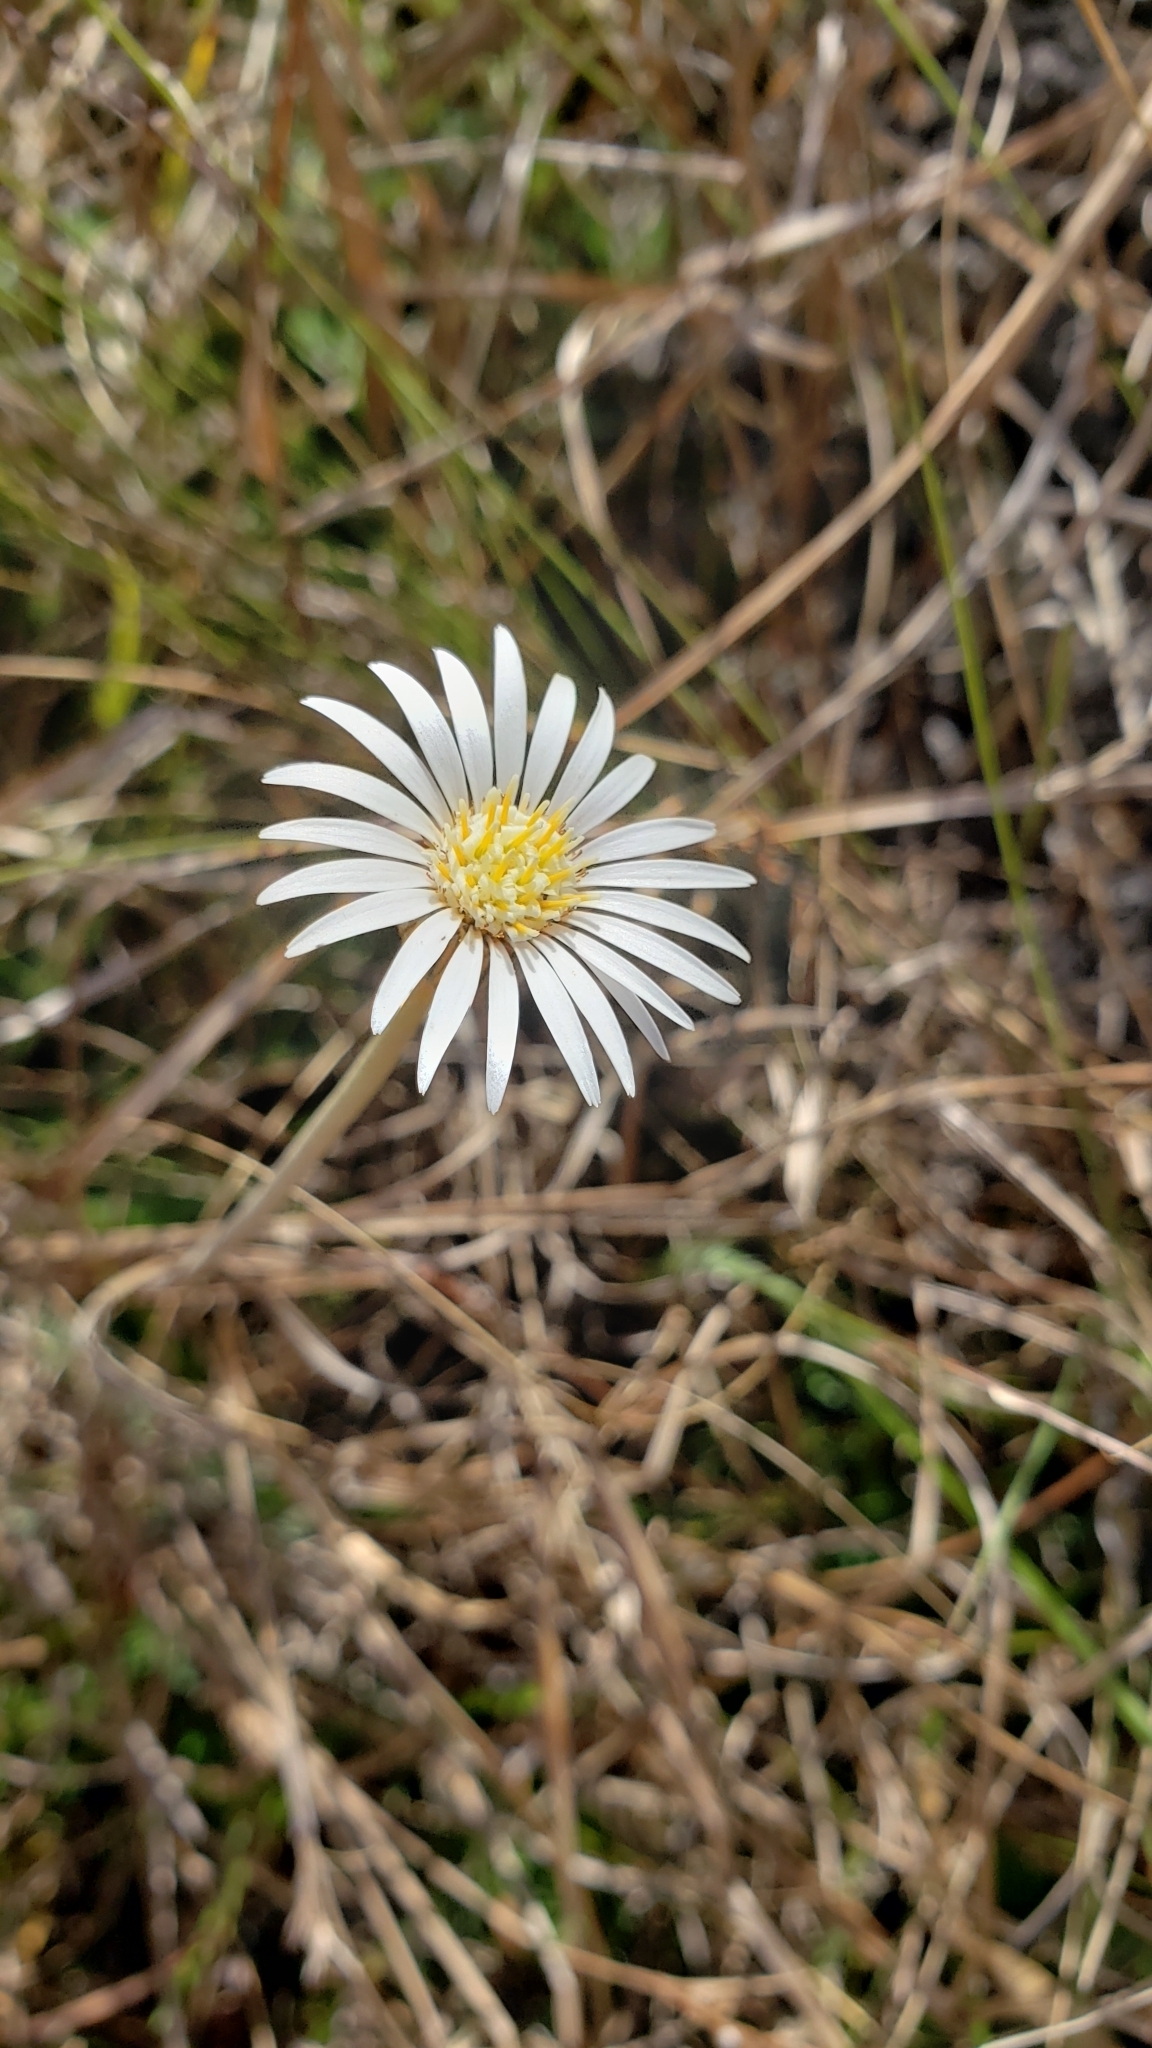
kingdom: Plantae
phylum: Tracheophyta
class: Magnoliopsida
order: Asterales
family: Asteraceae
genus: Chaptalia
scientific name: Chaptalia tomentosa
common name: Woolly sunbonnet
